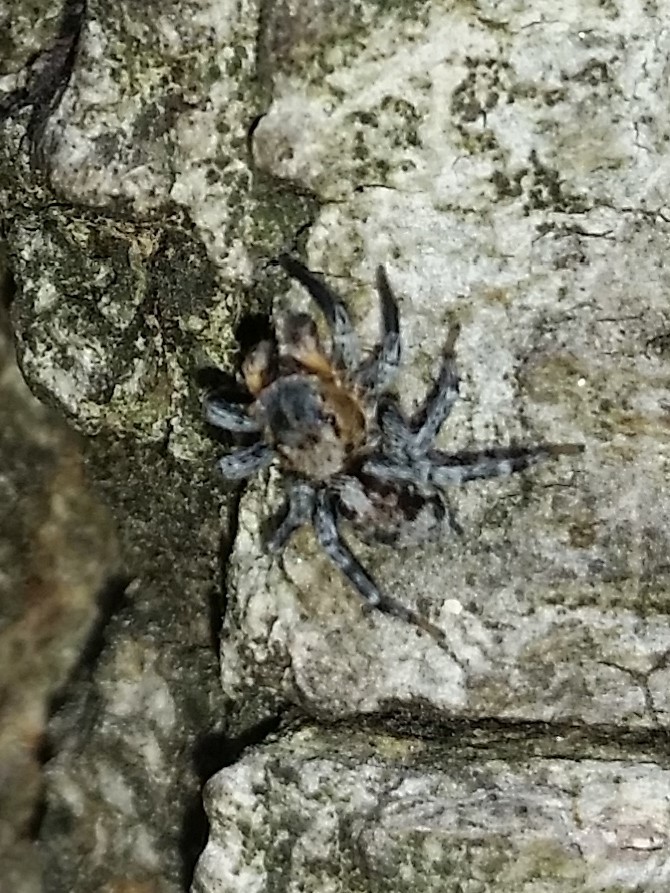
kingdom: Animalia
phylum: Arthropoda
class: Arachnida
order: Araneae
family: Salticidae
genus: Naphrys
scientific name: Naphrys pulex
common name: Flea jumping spider
